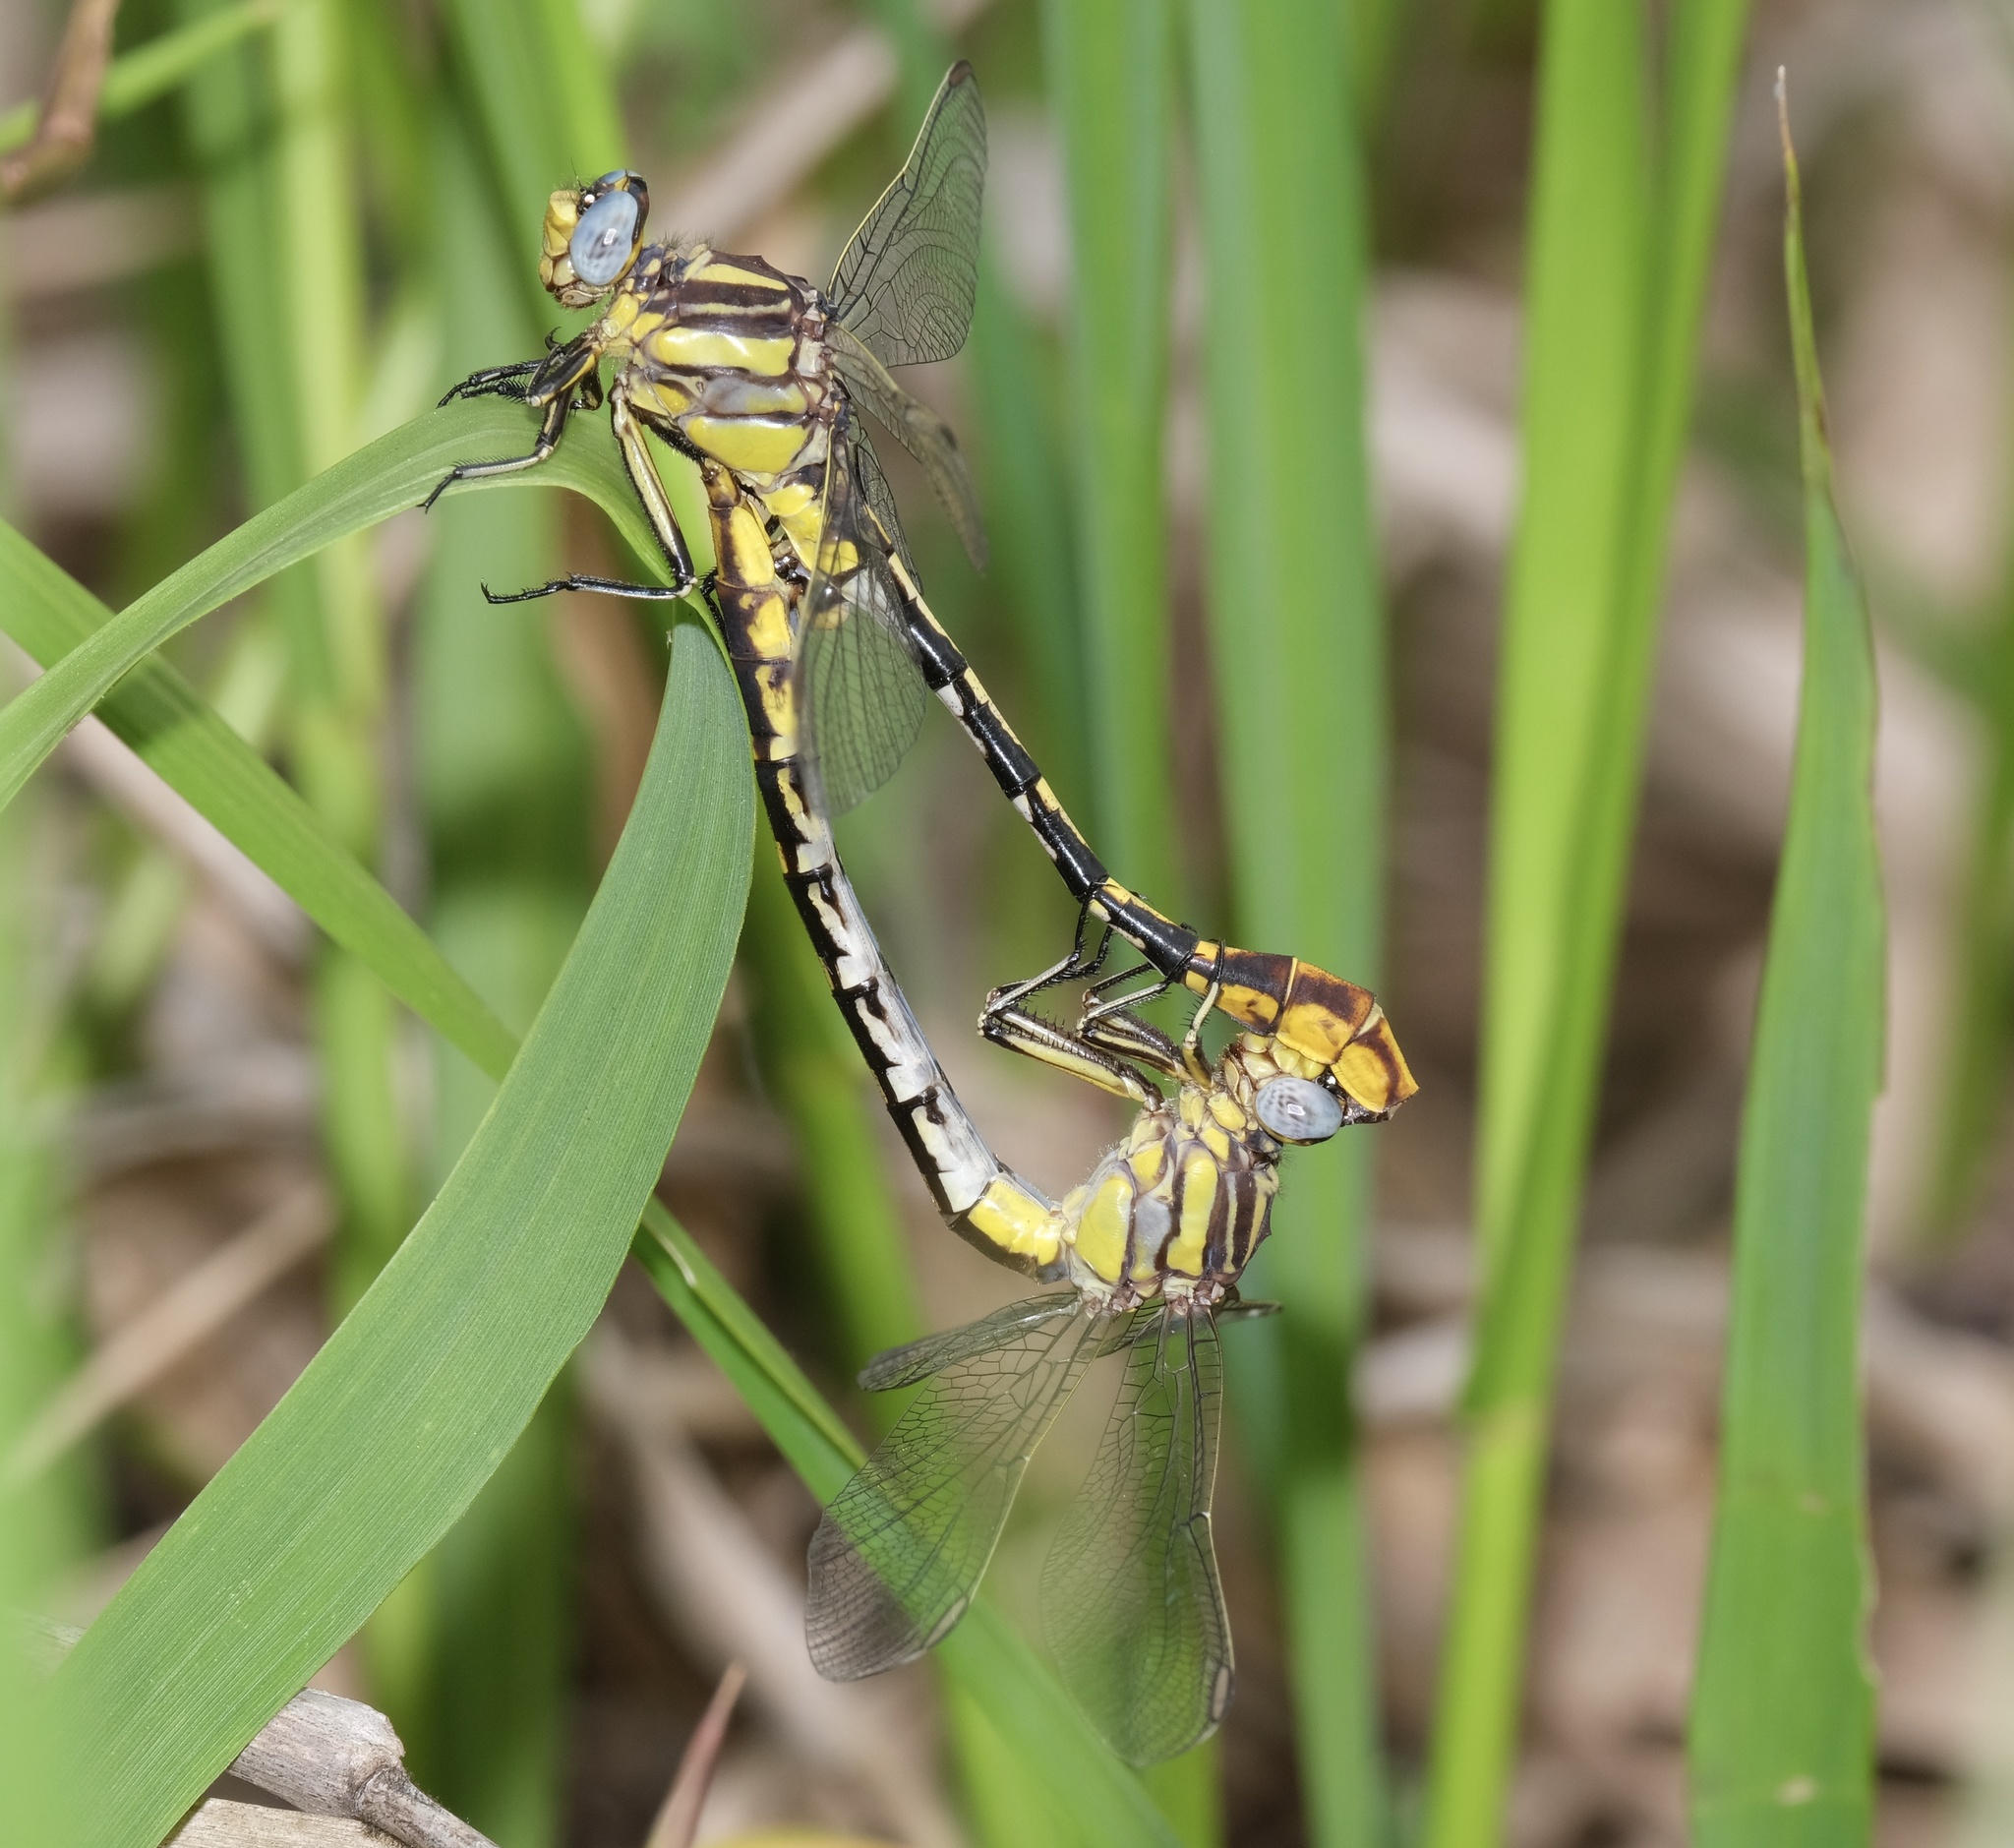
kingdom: Animalia
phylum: Arthropoda
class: Insecta
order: Odonata
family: Gomphidae
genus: Phanogomphus
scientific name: Phanogomphus militaris
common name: Sulphur-tipped clubtail
